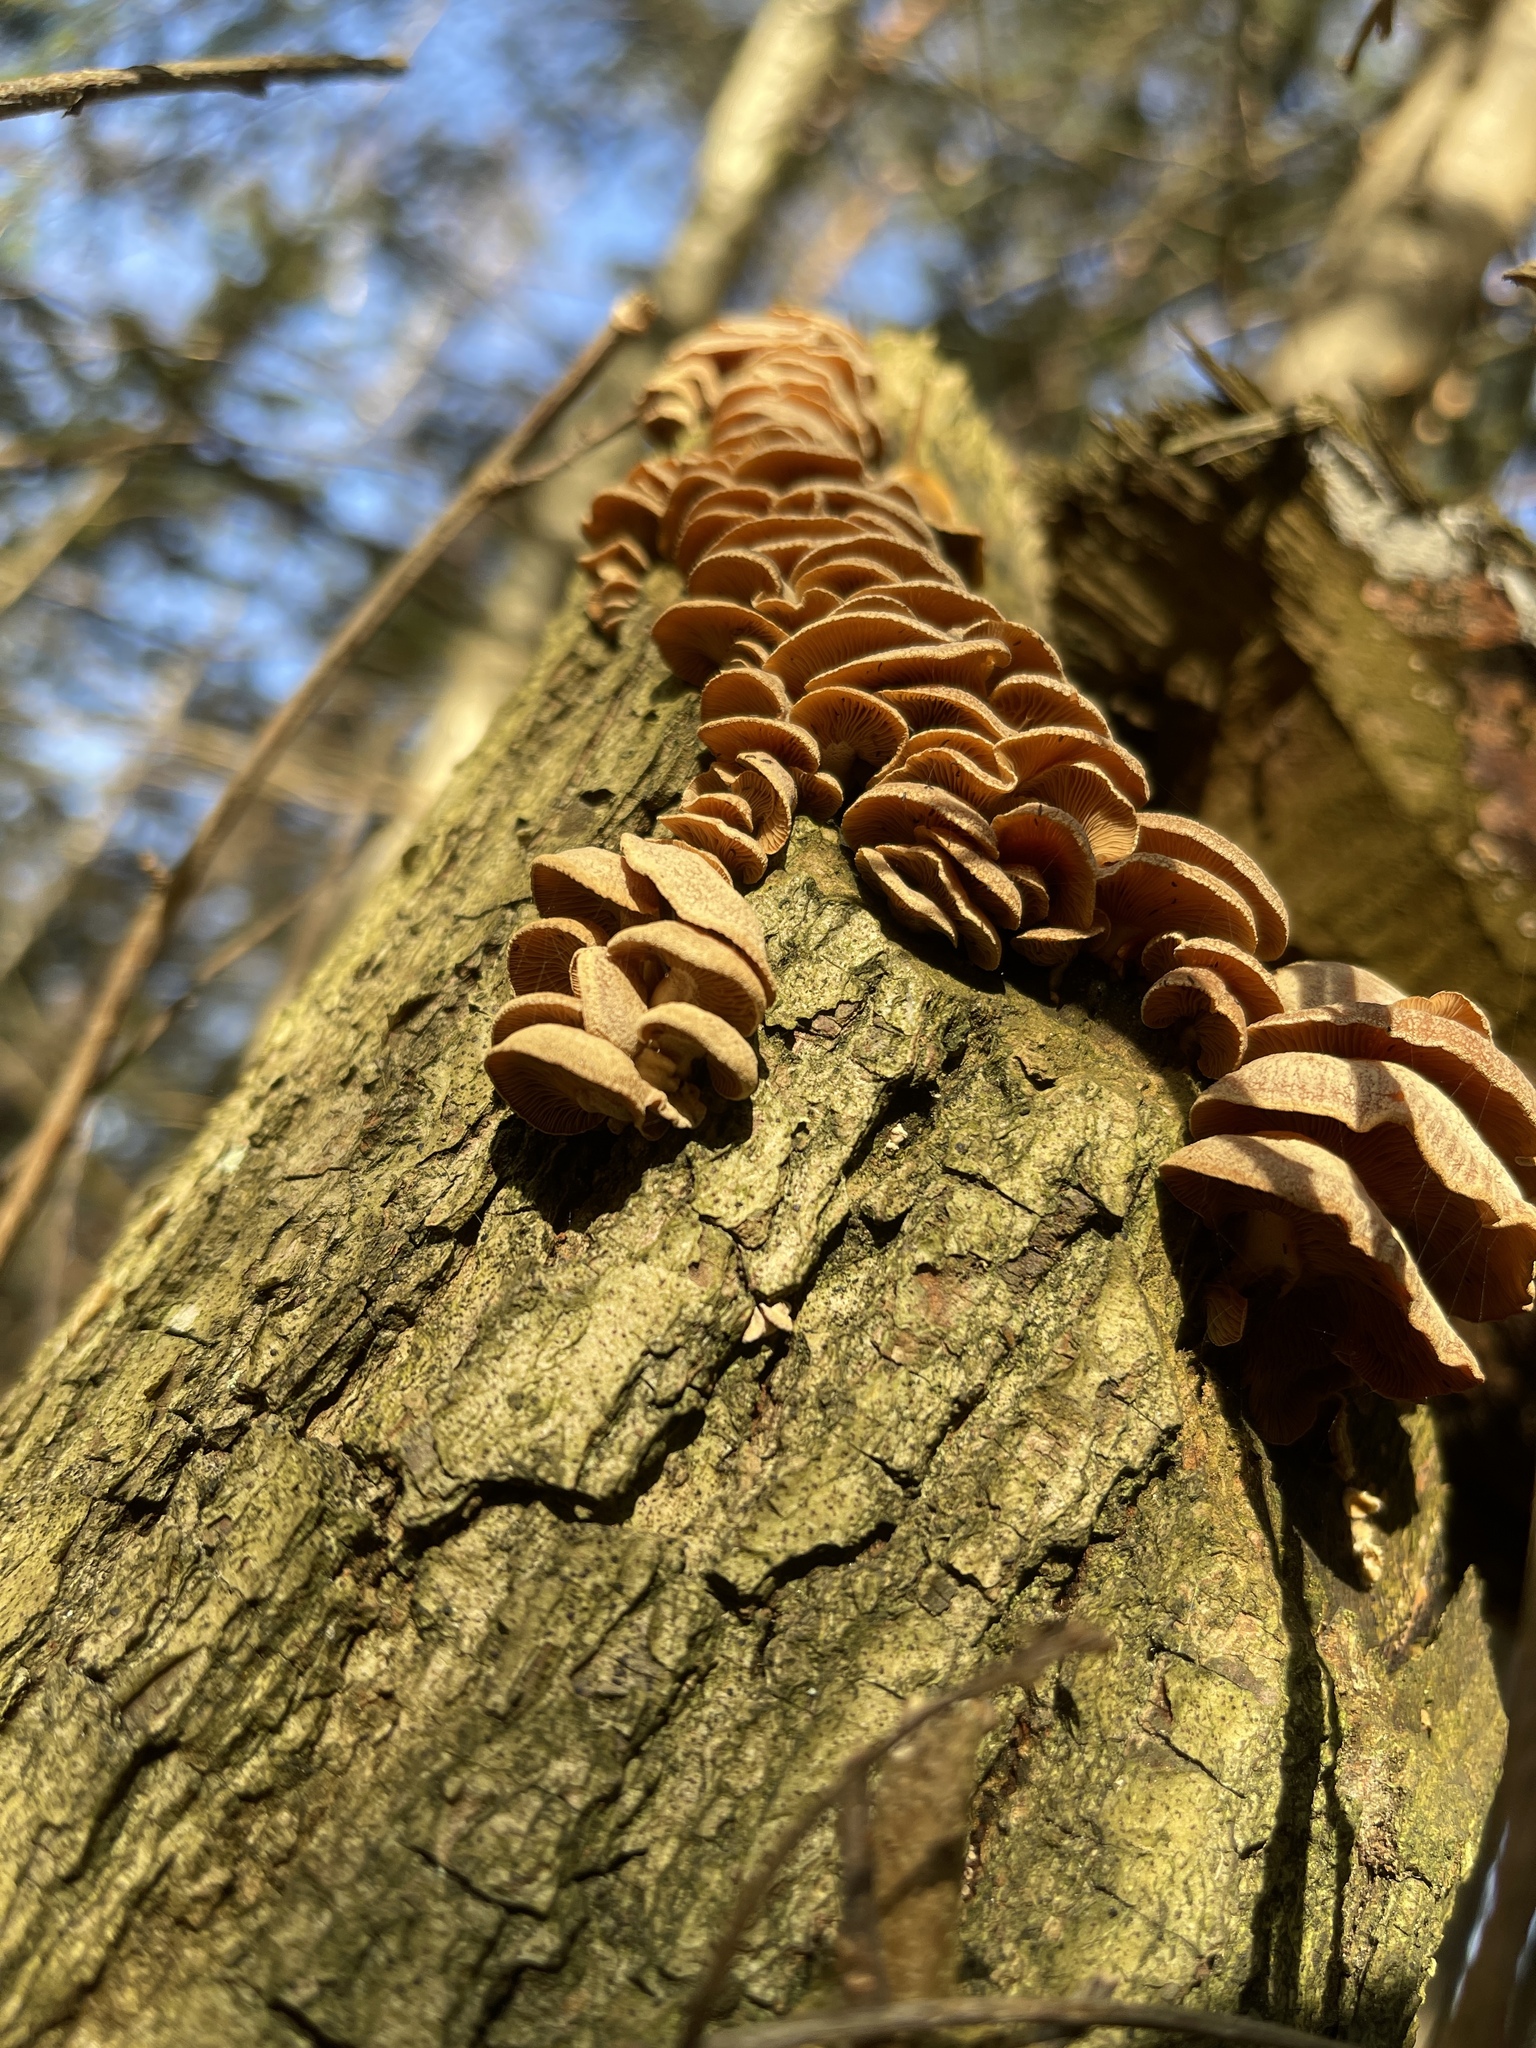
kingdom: Fungi
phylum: Basidiomycota
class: Agaricomycetes
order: Agaricales
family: Mycenaceae
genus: Panellus
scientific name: Panellus stipticus
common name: Bitter oysterling
